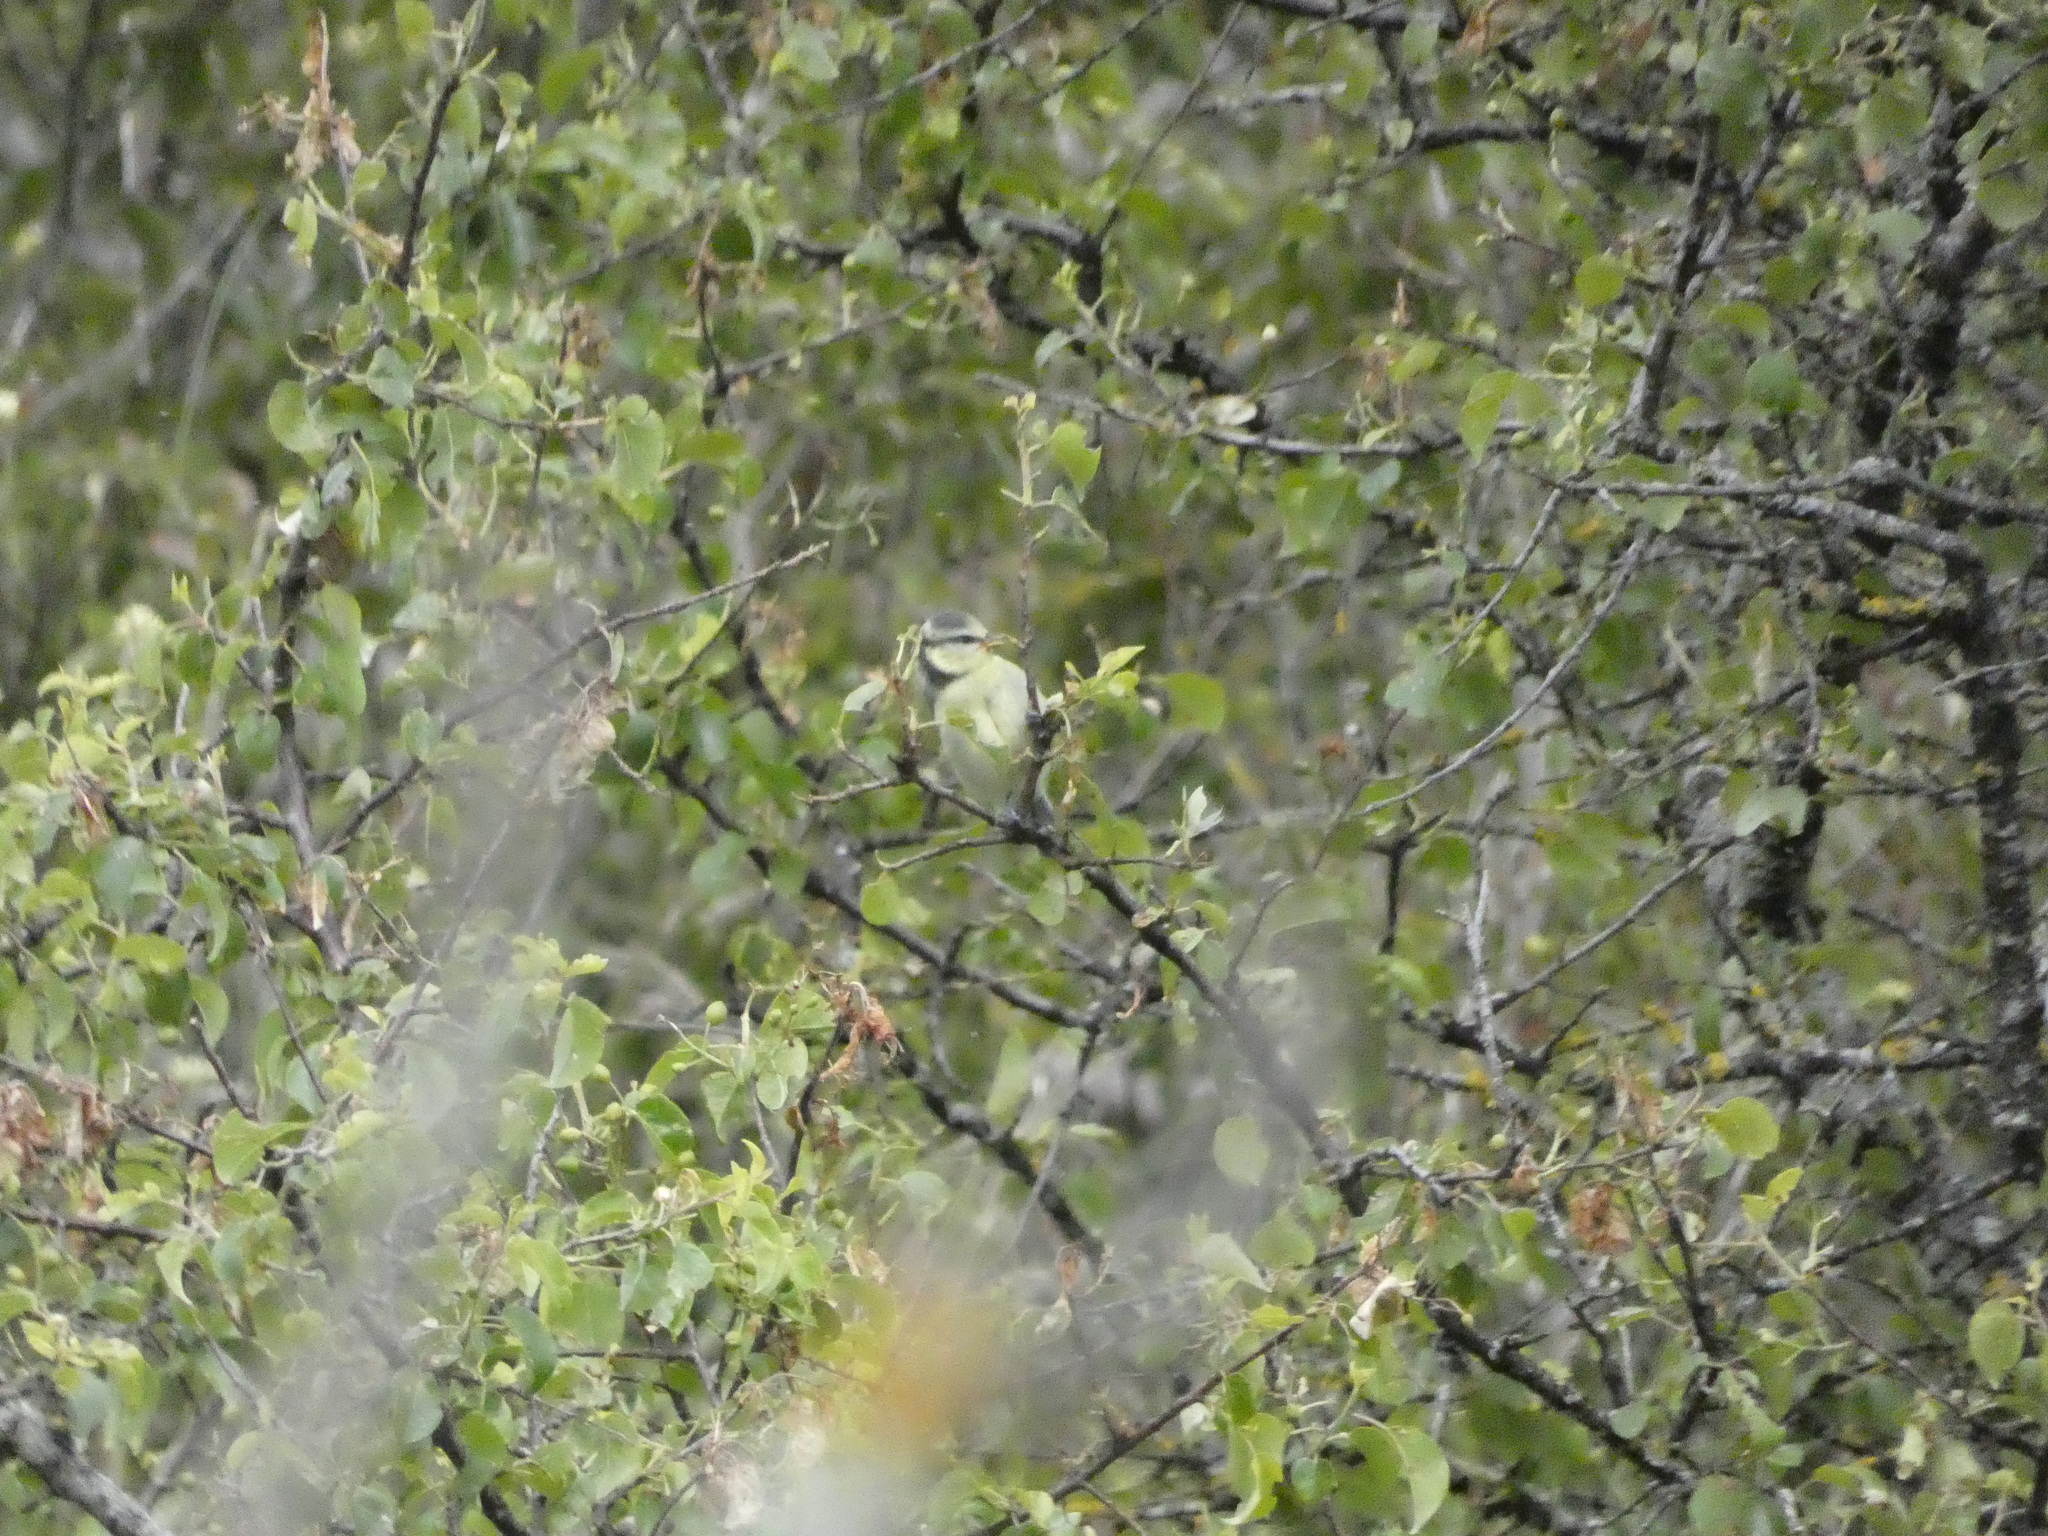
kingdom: Animalia
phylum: Chordata
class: Aves
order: Passeriformes
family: Paridae
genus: Cyanistes
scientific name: Cyanistes caeruleus
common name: Eurasian blue tit
